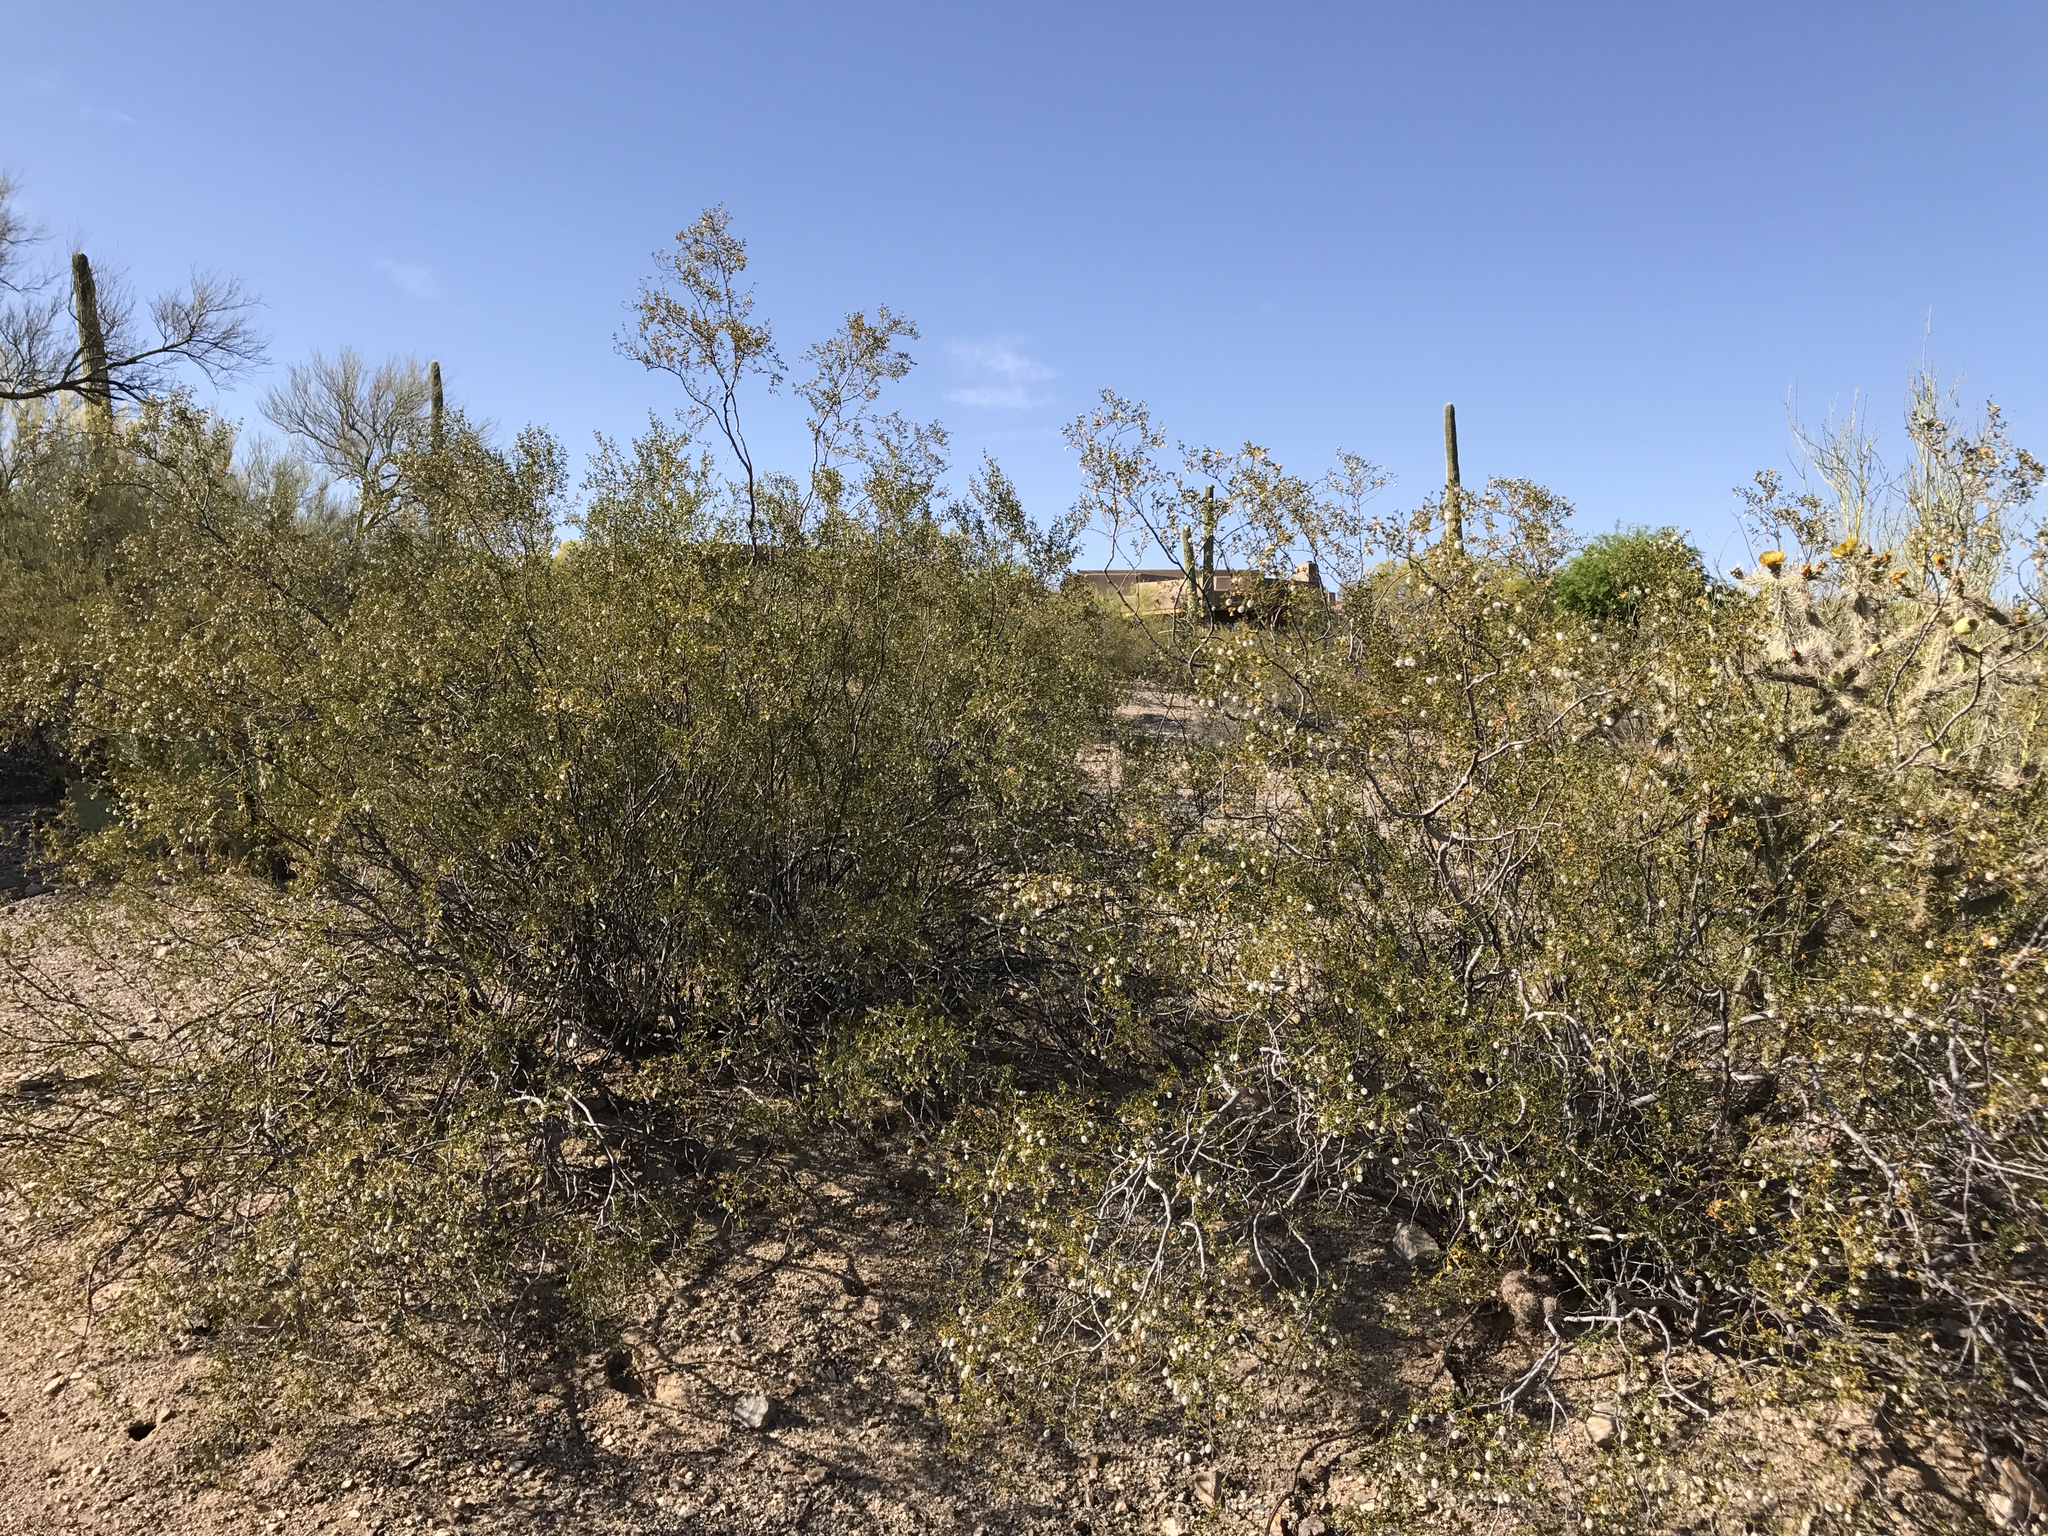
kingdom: Plantae
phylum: Tracheophyta
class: Magnoliopsida
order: Zygophyllales
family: Zygophyllaceae
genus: Larrea
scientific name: Larrea tridentata
